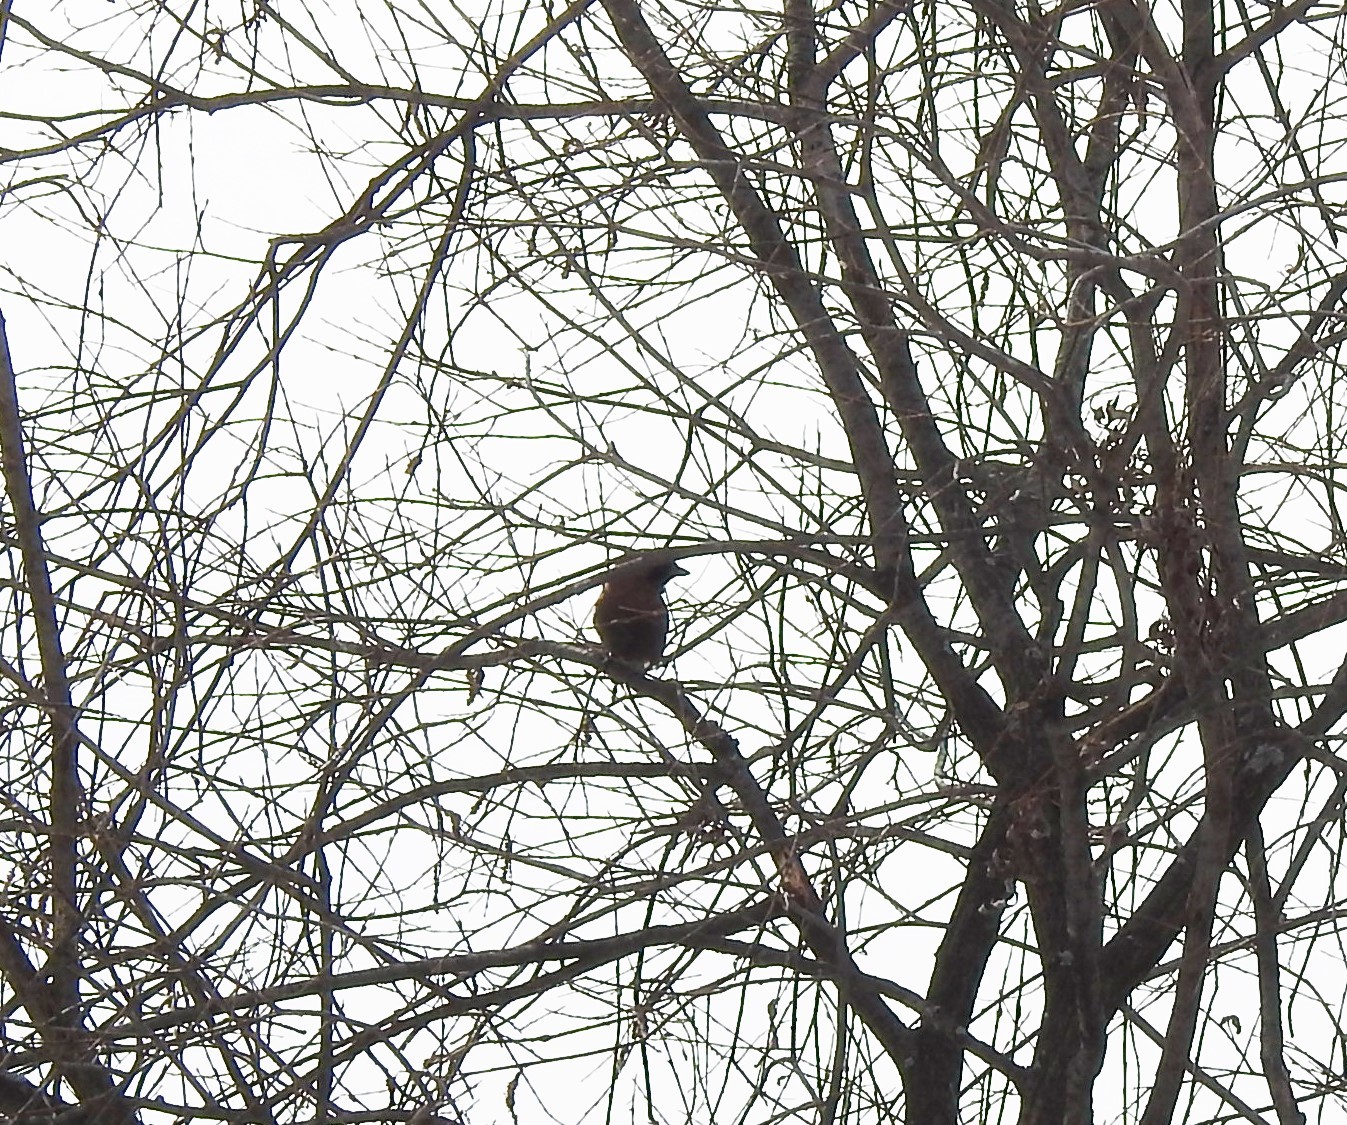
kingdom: Animalia
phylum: Chordata
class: Aves
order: Passeriformes
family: Corvidae
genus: Garrulus
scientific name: Garrulus glandarius
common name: Eurasian jay
